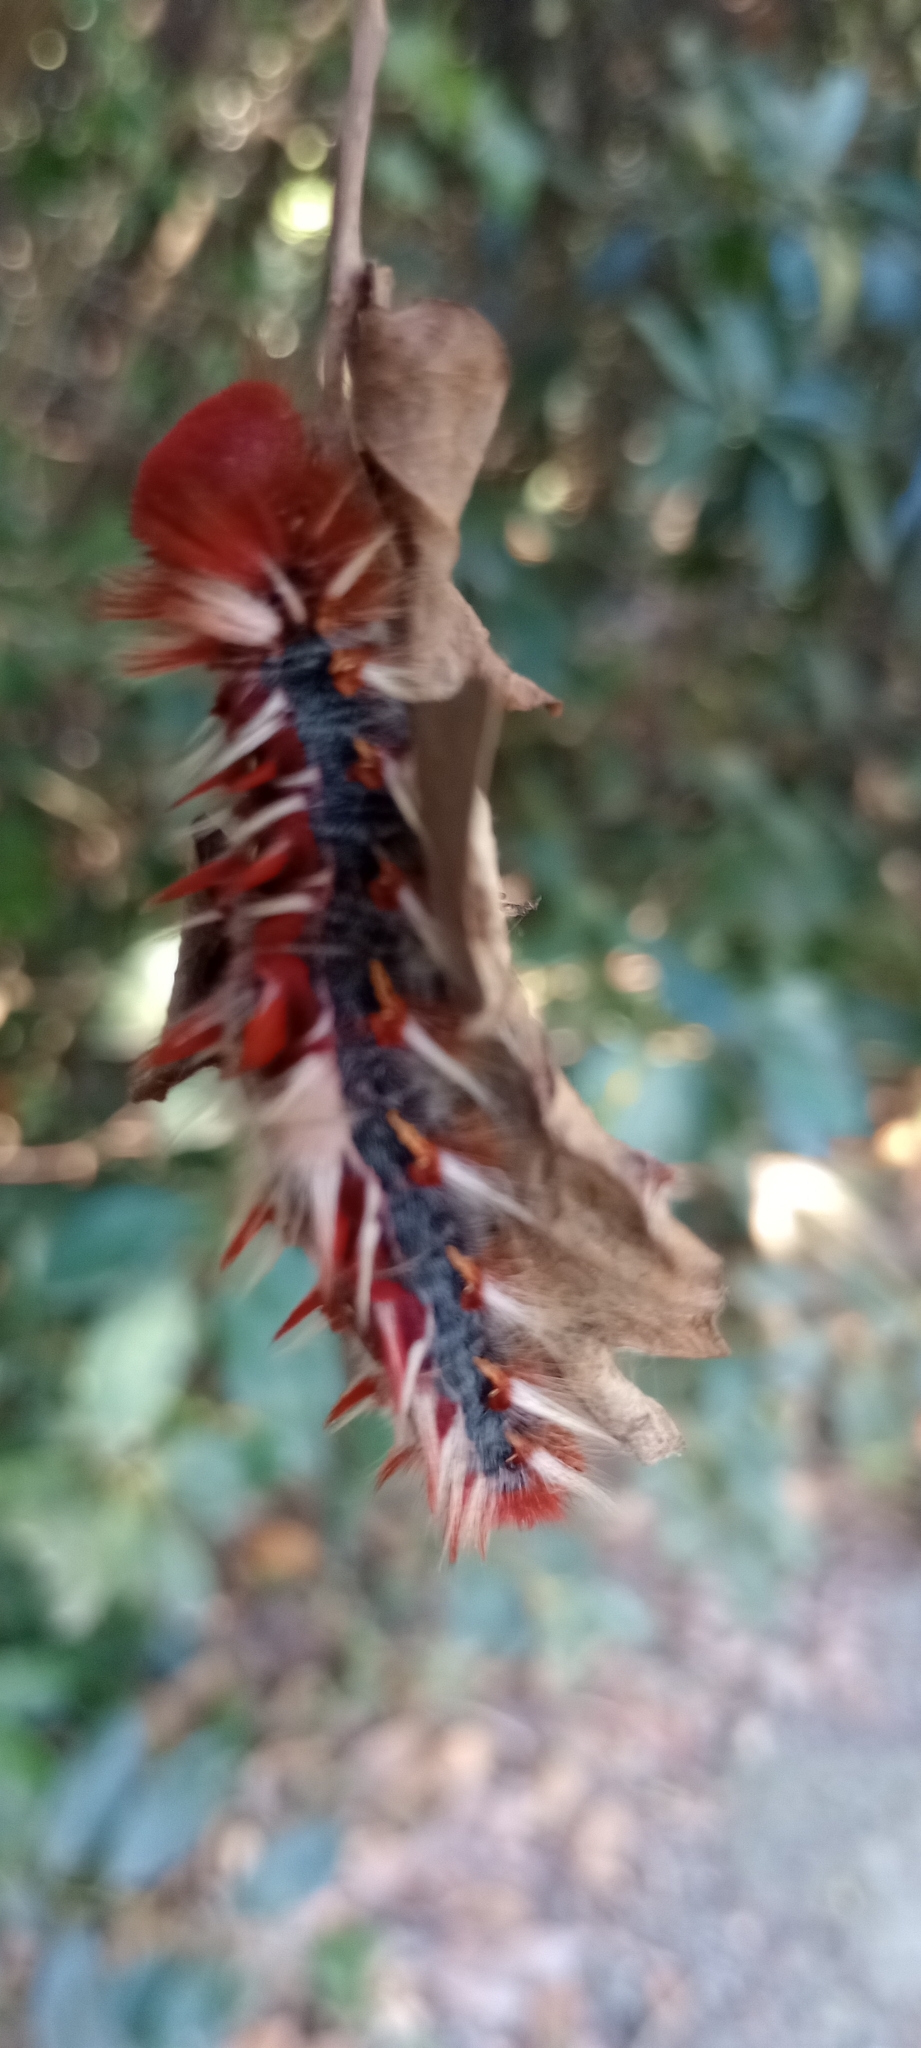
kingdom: Animalia
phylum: Arthropoda
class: Insecta
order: Lepidoptera
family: Nymphalidae
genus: Morpho
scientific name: Morpho epistrophus
